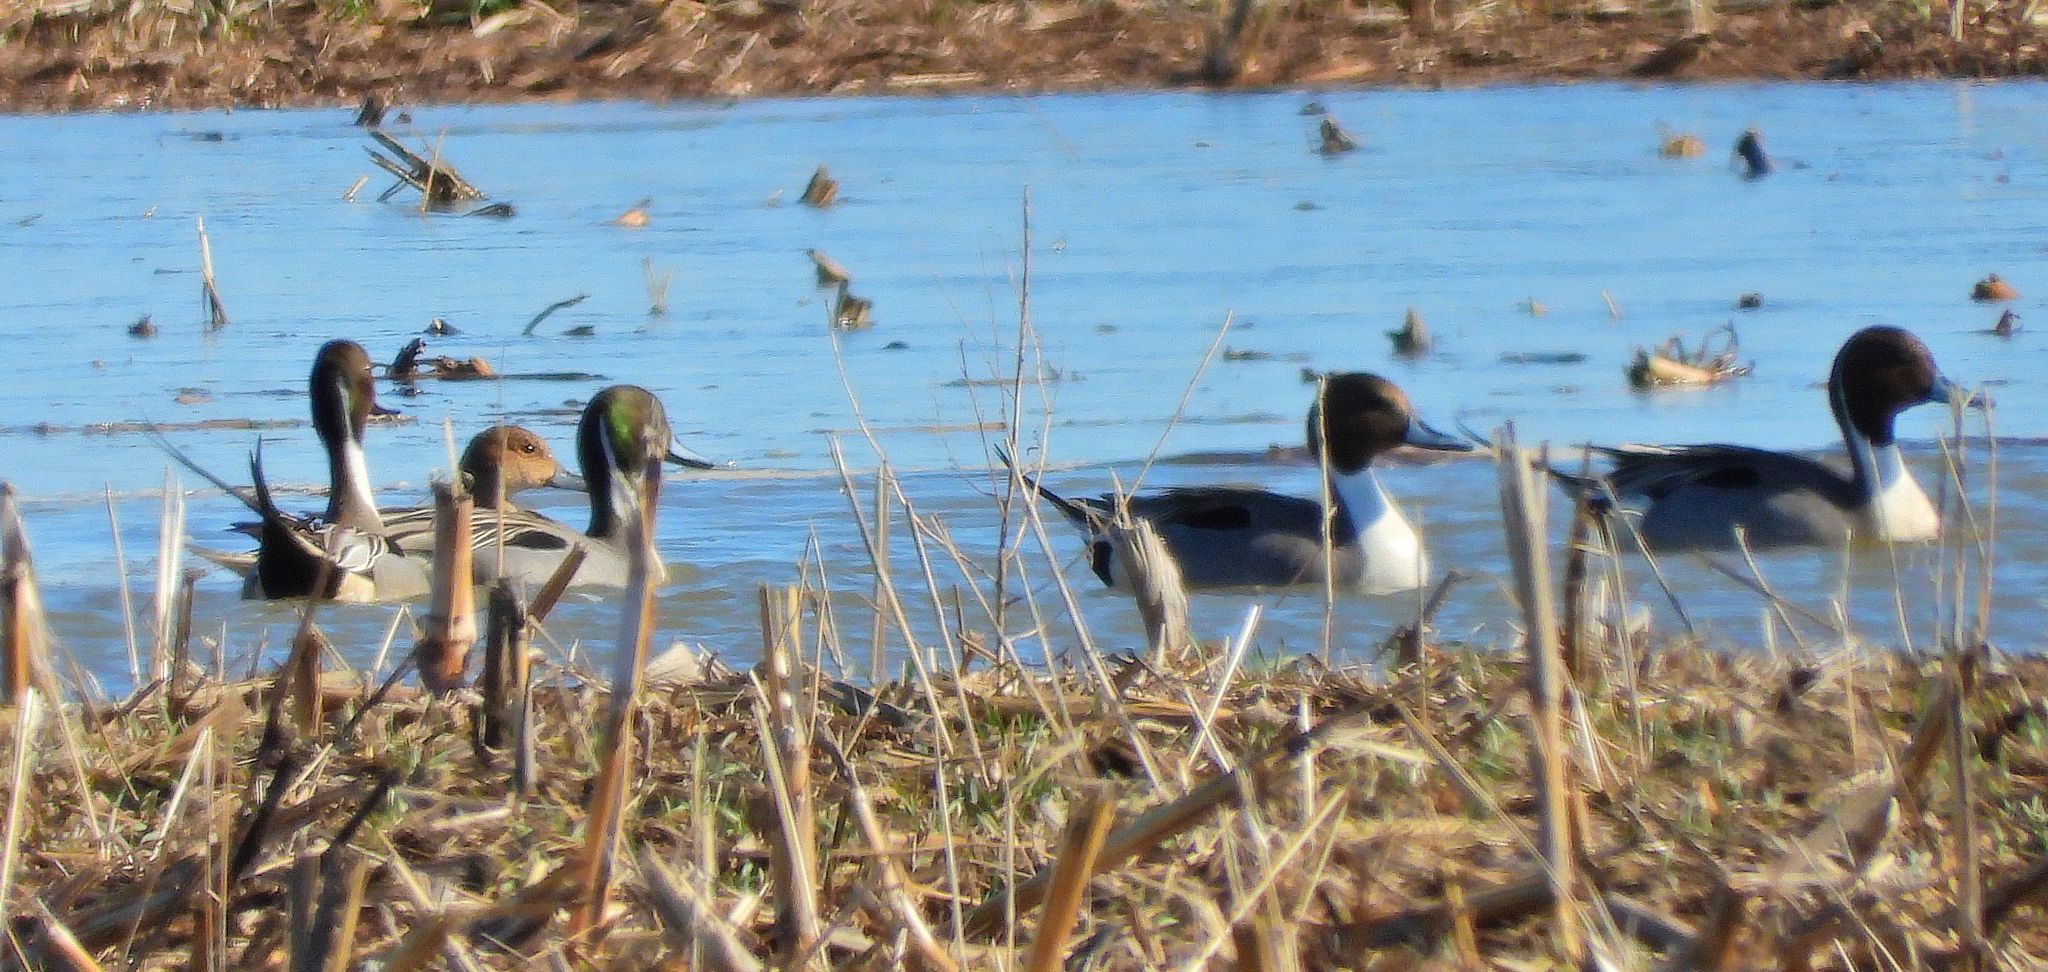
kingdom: Animalia
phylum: Chordata
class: Aves
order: Anseriformes
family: Anatidae
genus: Anas
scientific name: Anas acuta
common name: Northern pintail
